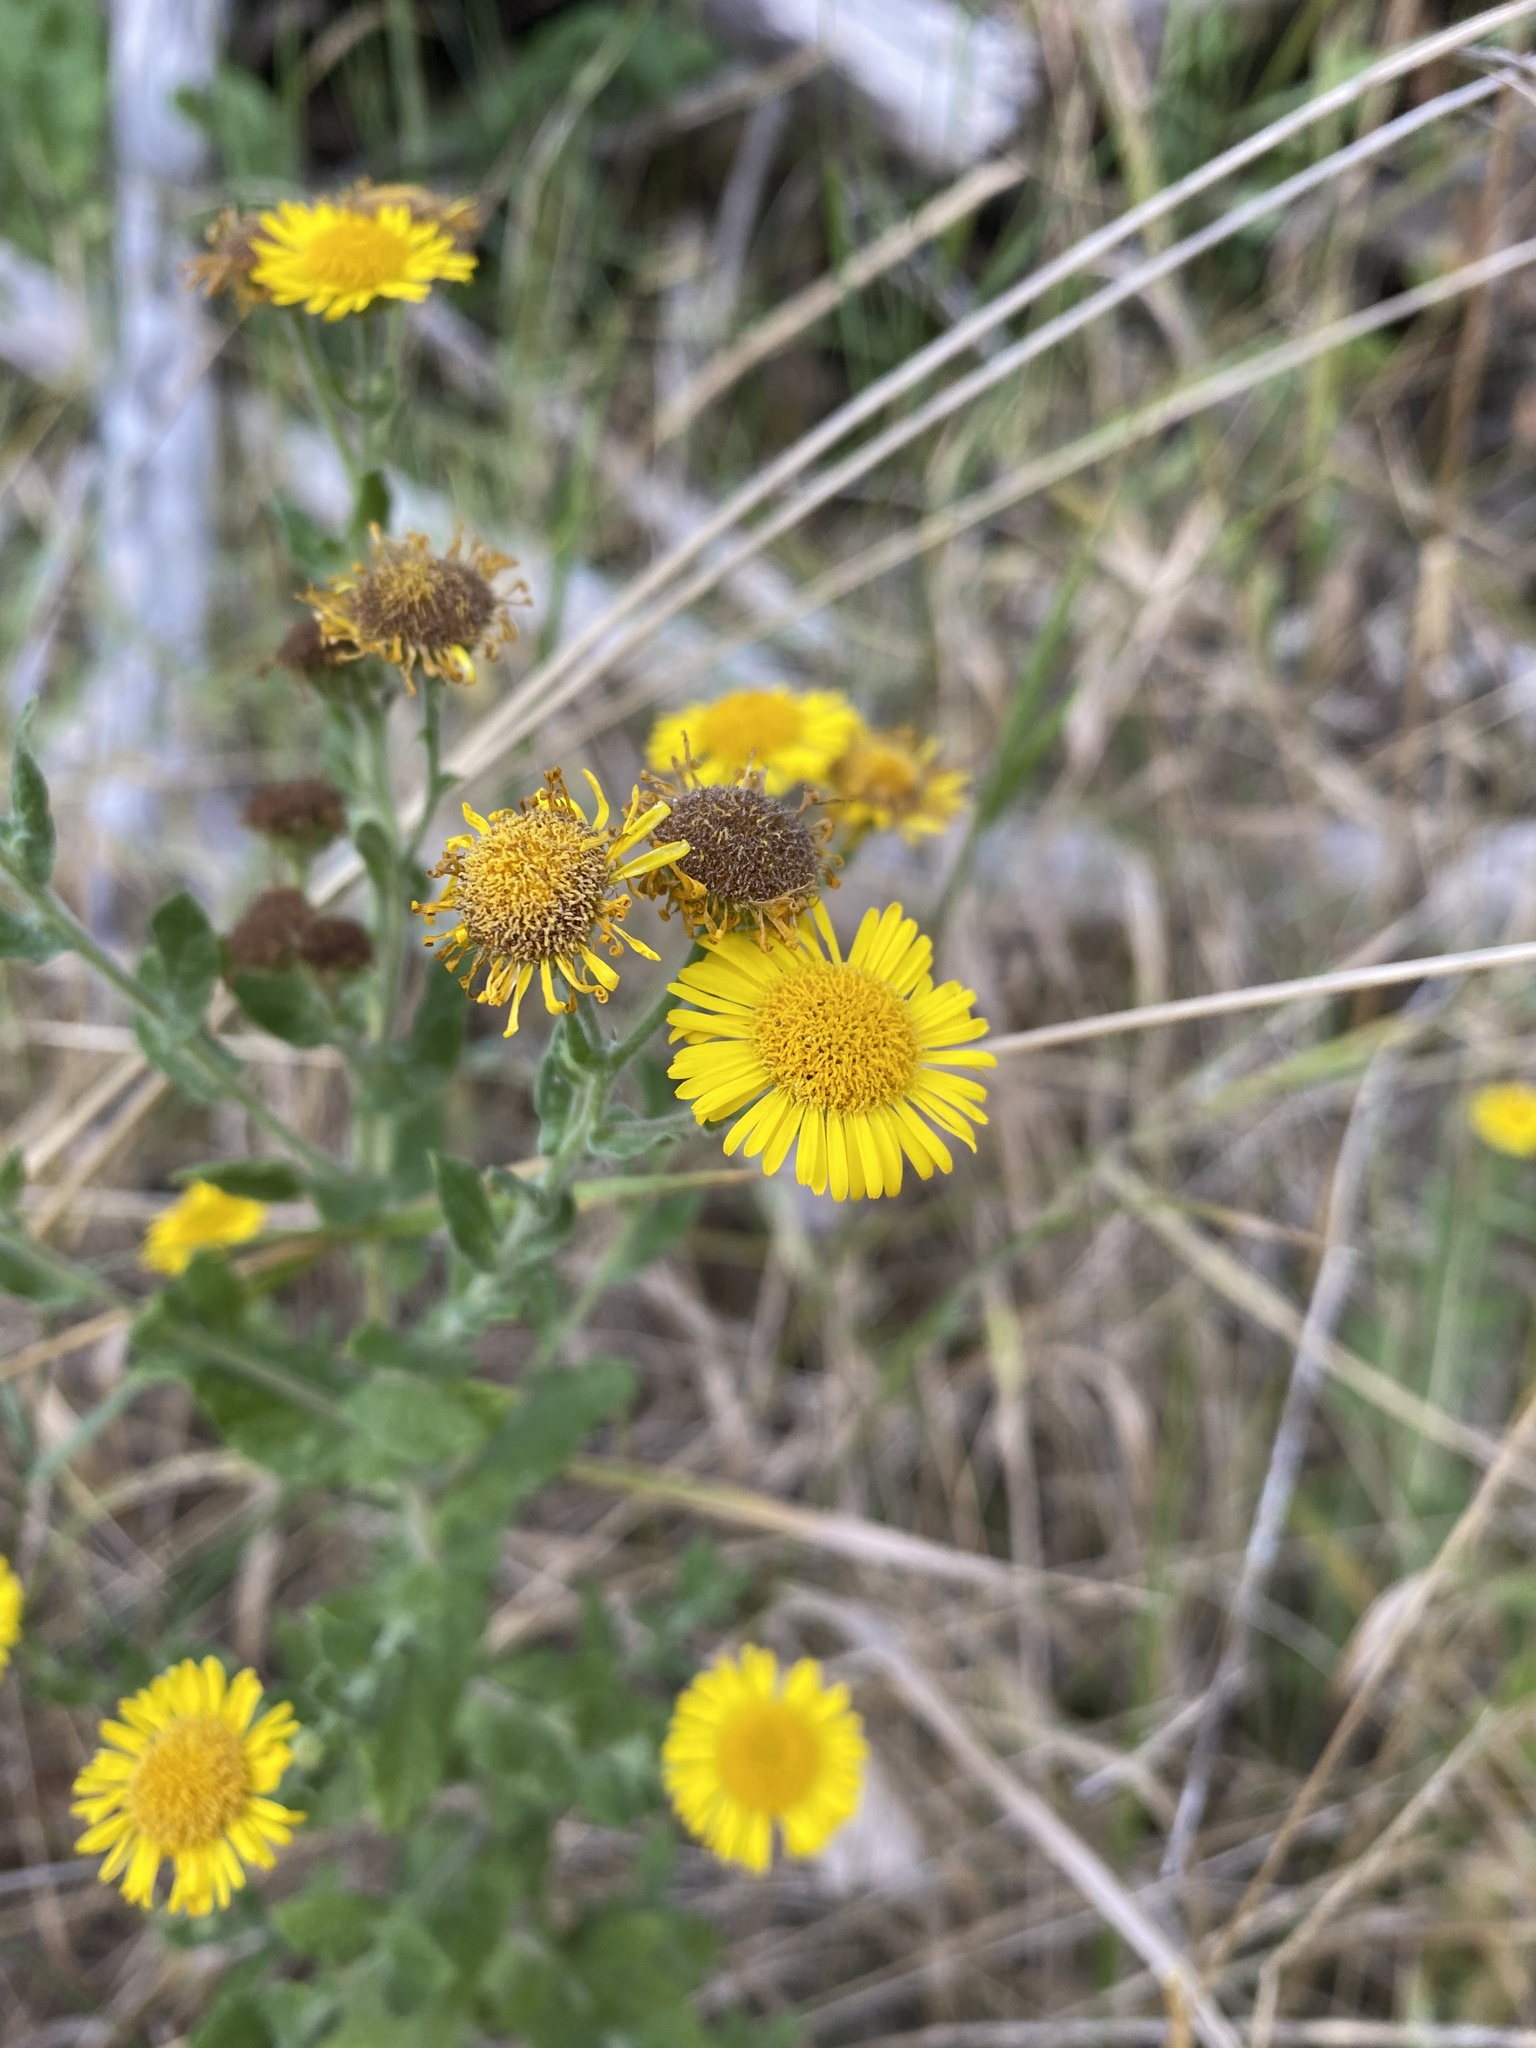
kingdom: Plantae
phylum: Tracheophyta
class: Magnoliopsida
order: Asterales
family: Asteraceae
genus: Pulicaria
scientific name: Pulicaria dysenterica
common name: Common fleabane
